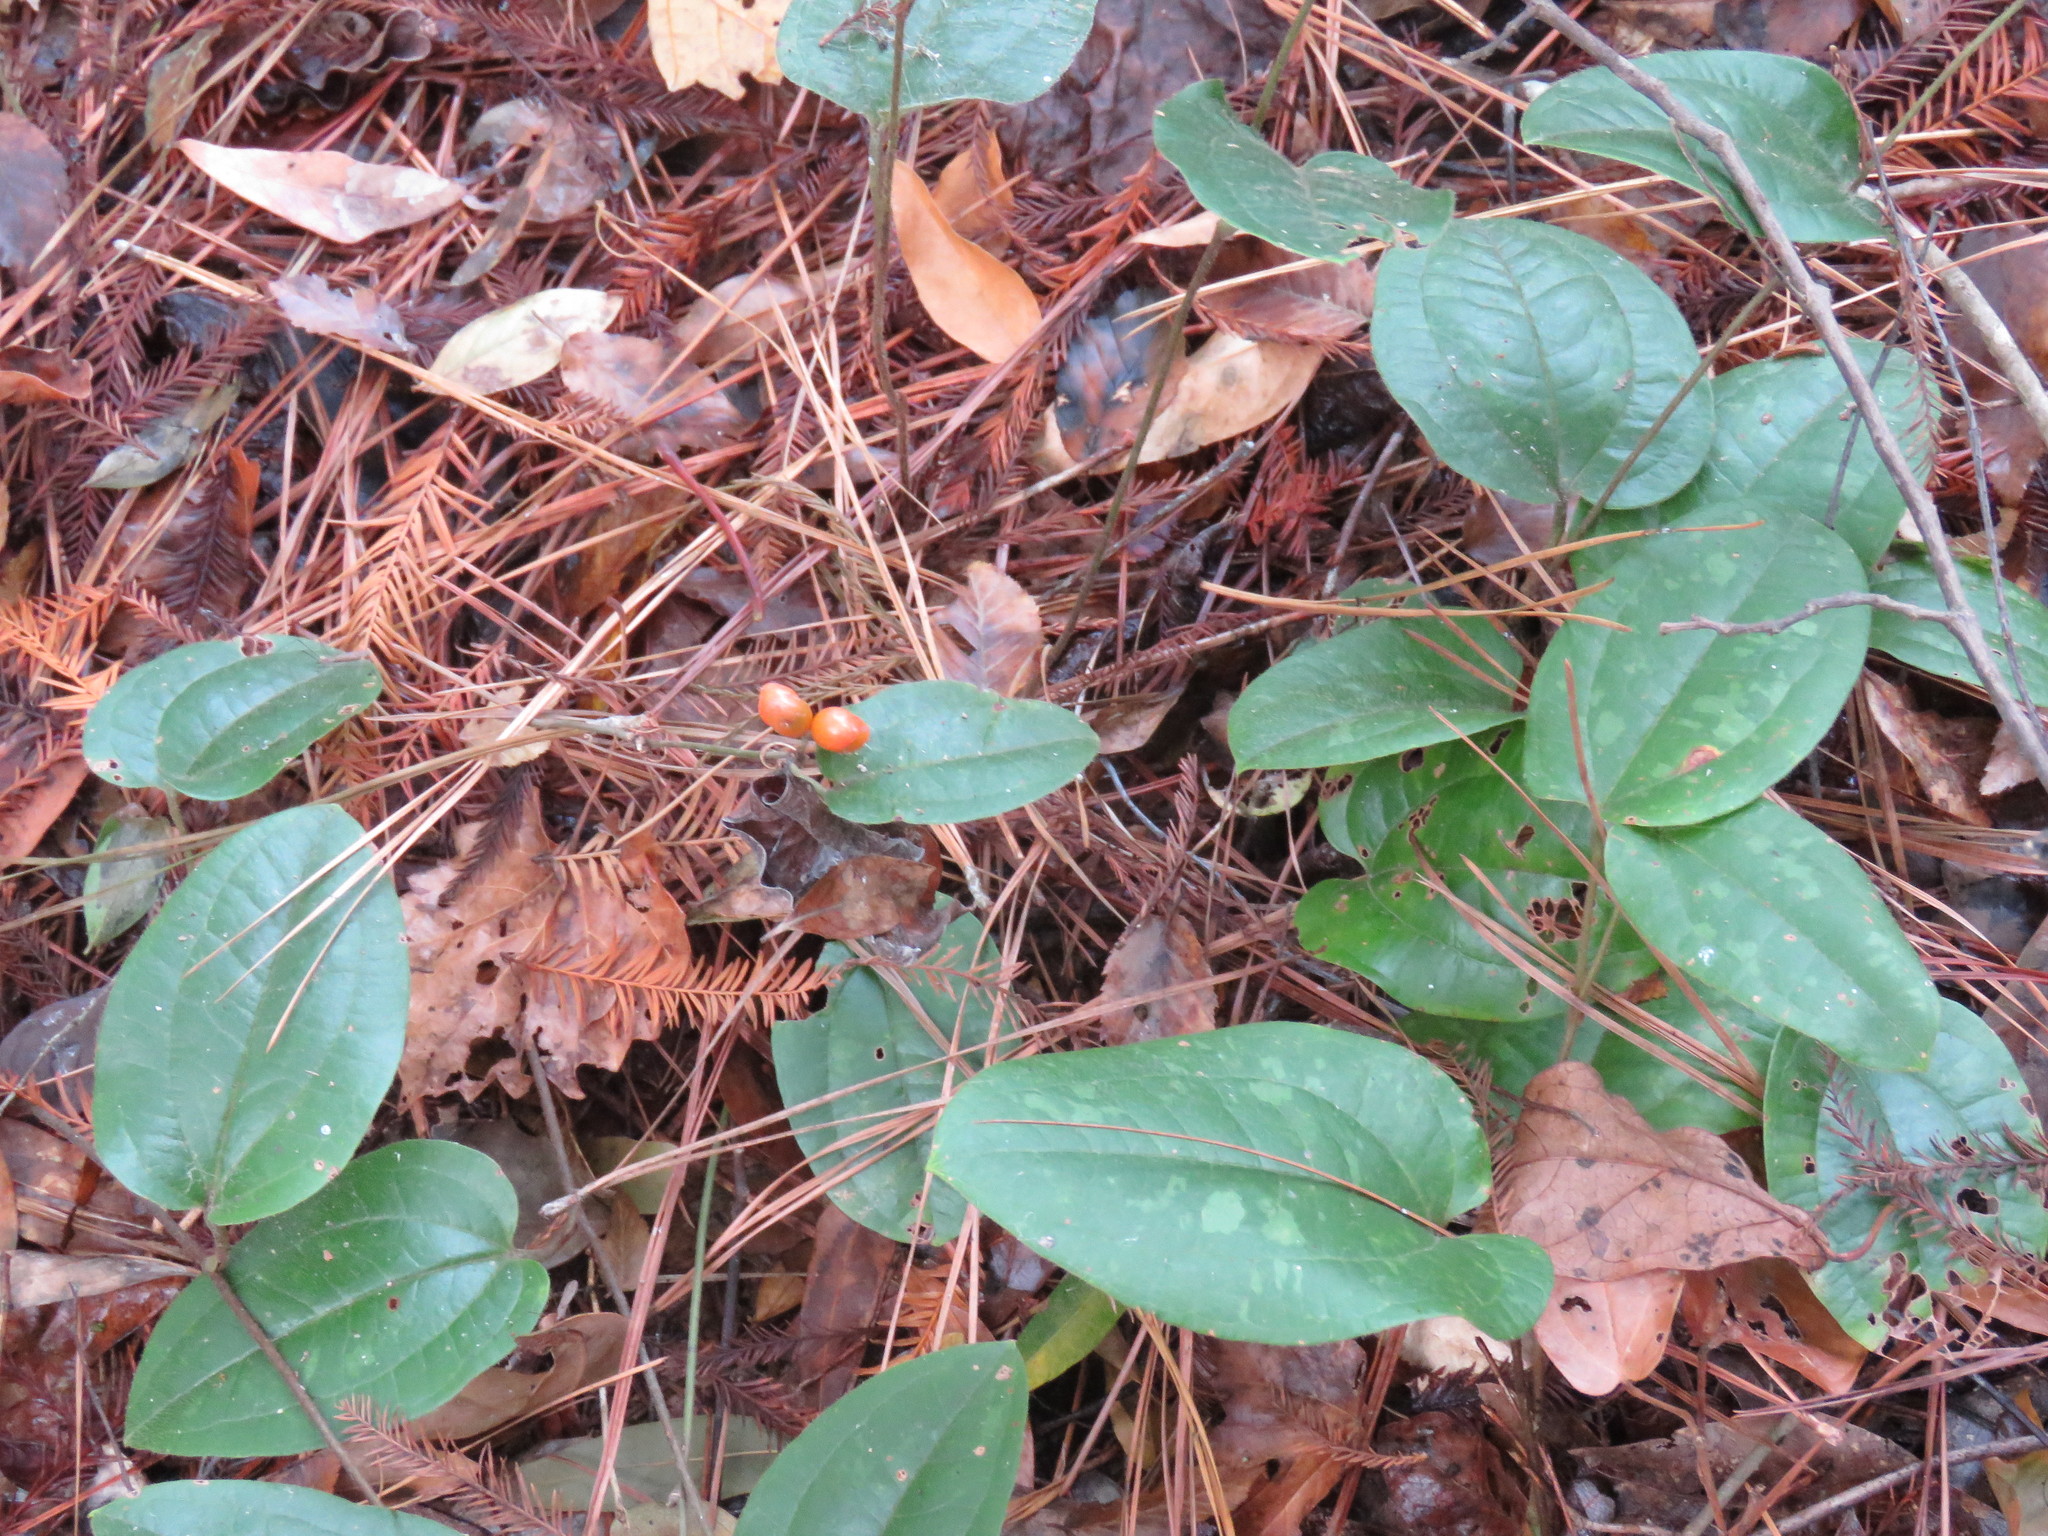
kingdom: Plantae
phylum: Tracheophyta
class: Liliopsida
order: Liliales
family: Smilacaceae
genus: Smilax
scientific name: Smilax pumila
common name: Sarsaparilla-vine
